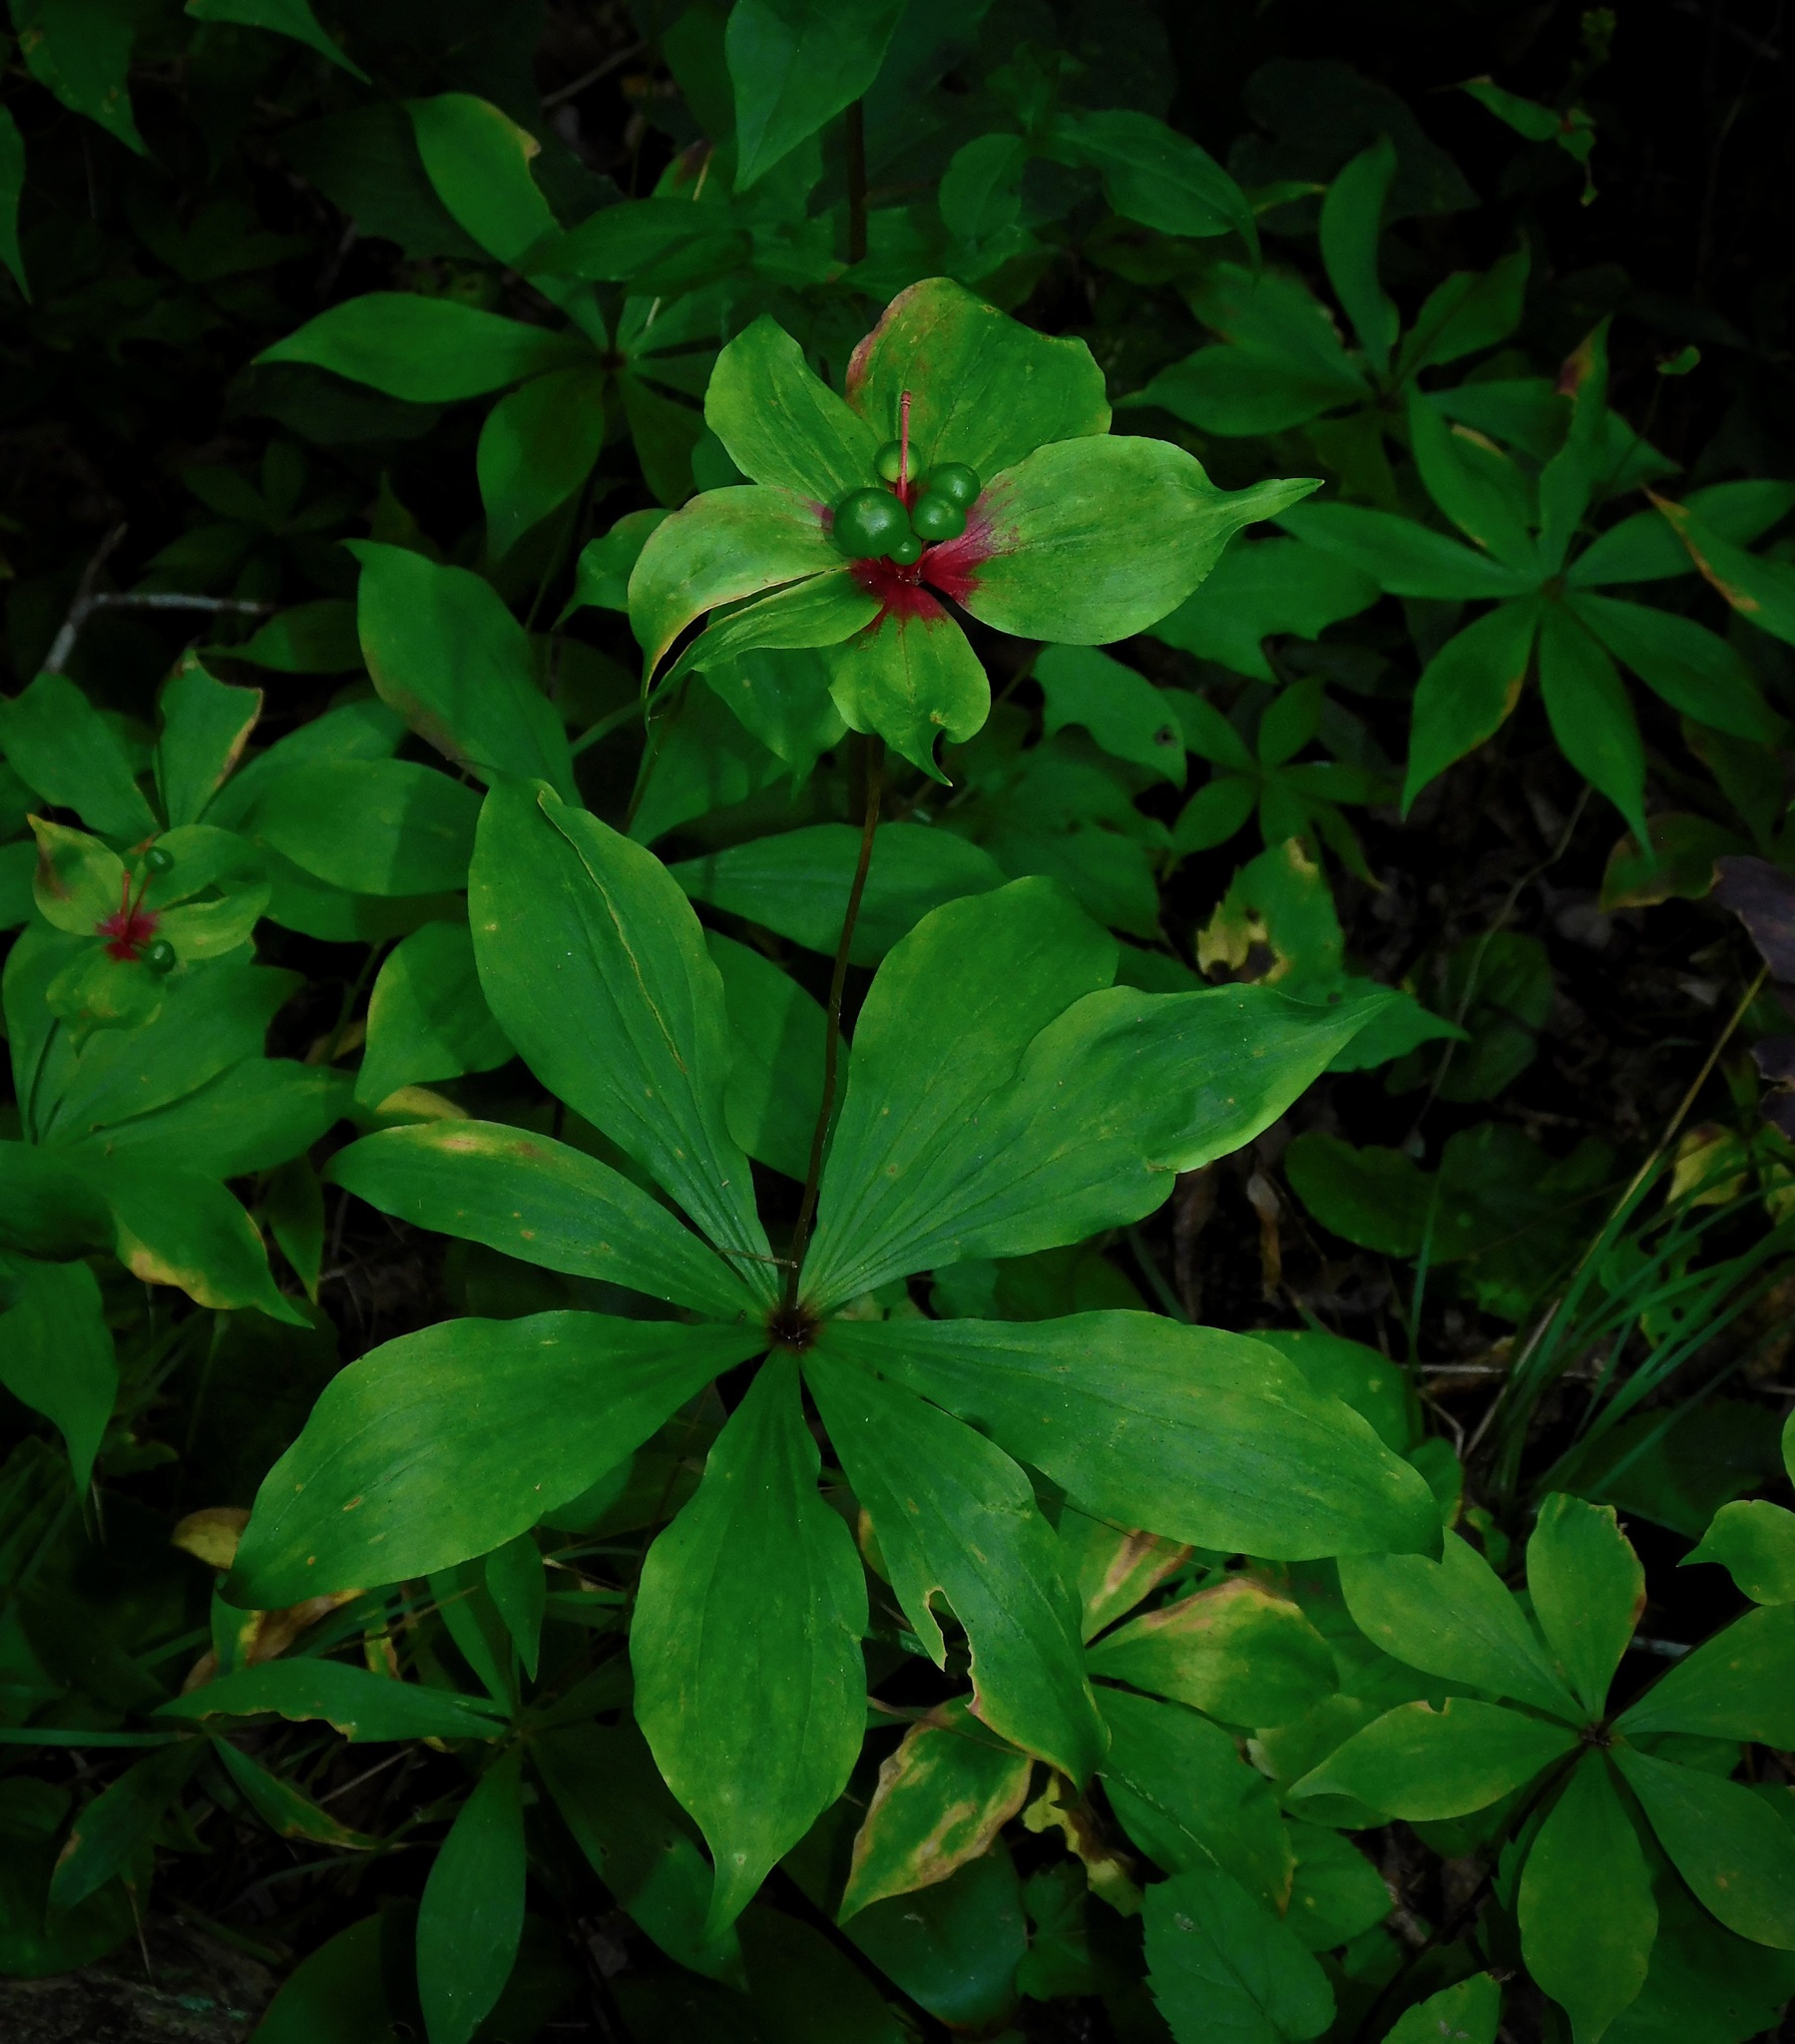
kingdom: Plantae
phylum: Tracheophyta
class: Liliopsida
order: Liliales
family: Liliaceae
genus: Medeola
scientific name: Medeola virginiana
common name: Indian cucumber-root
